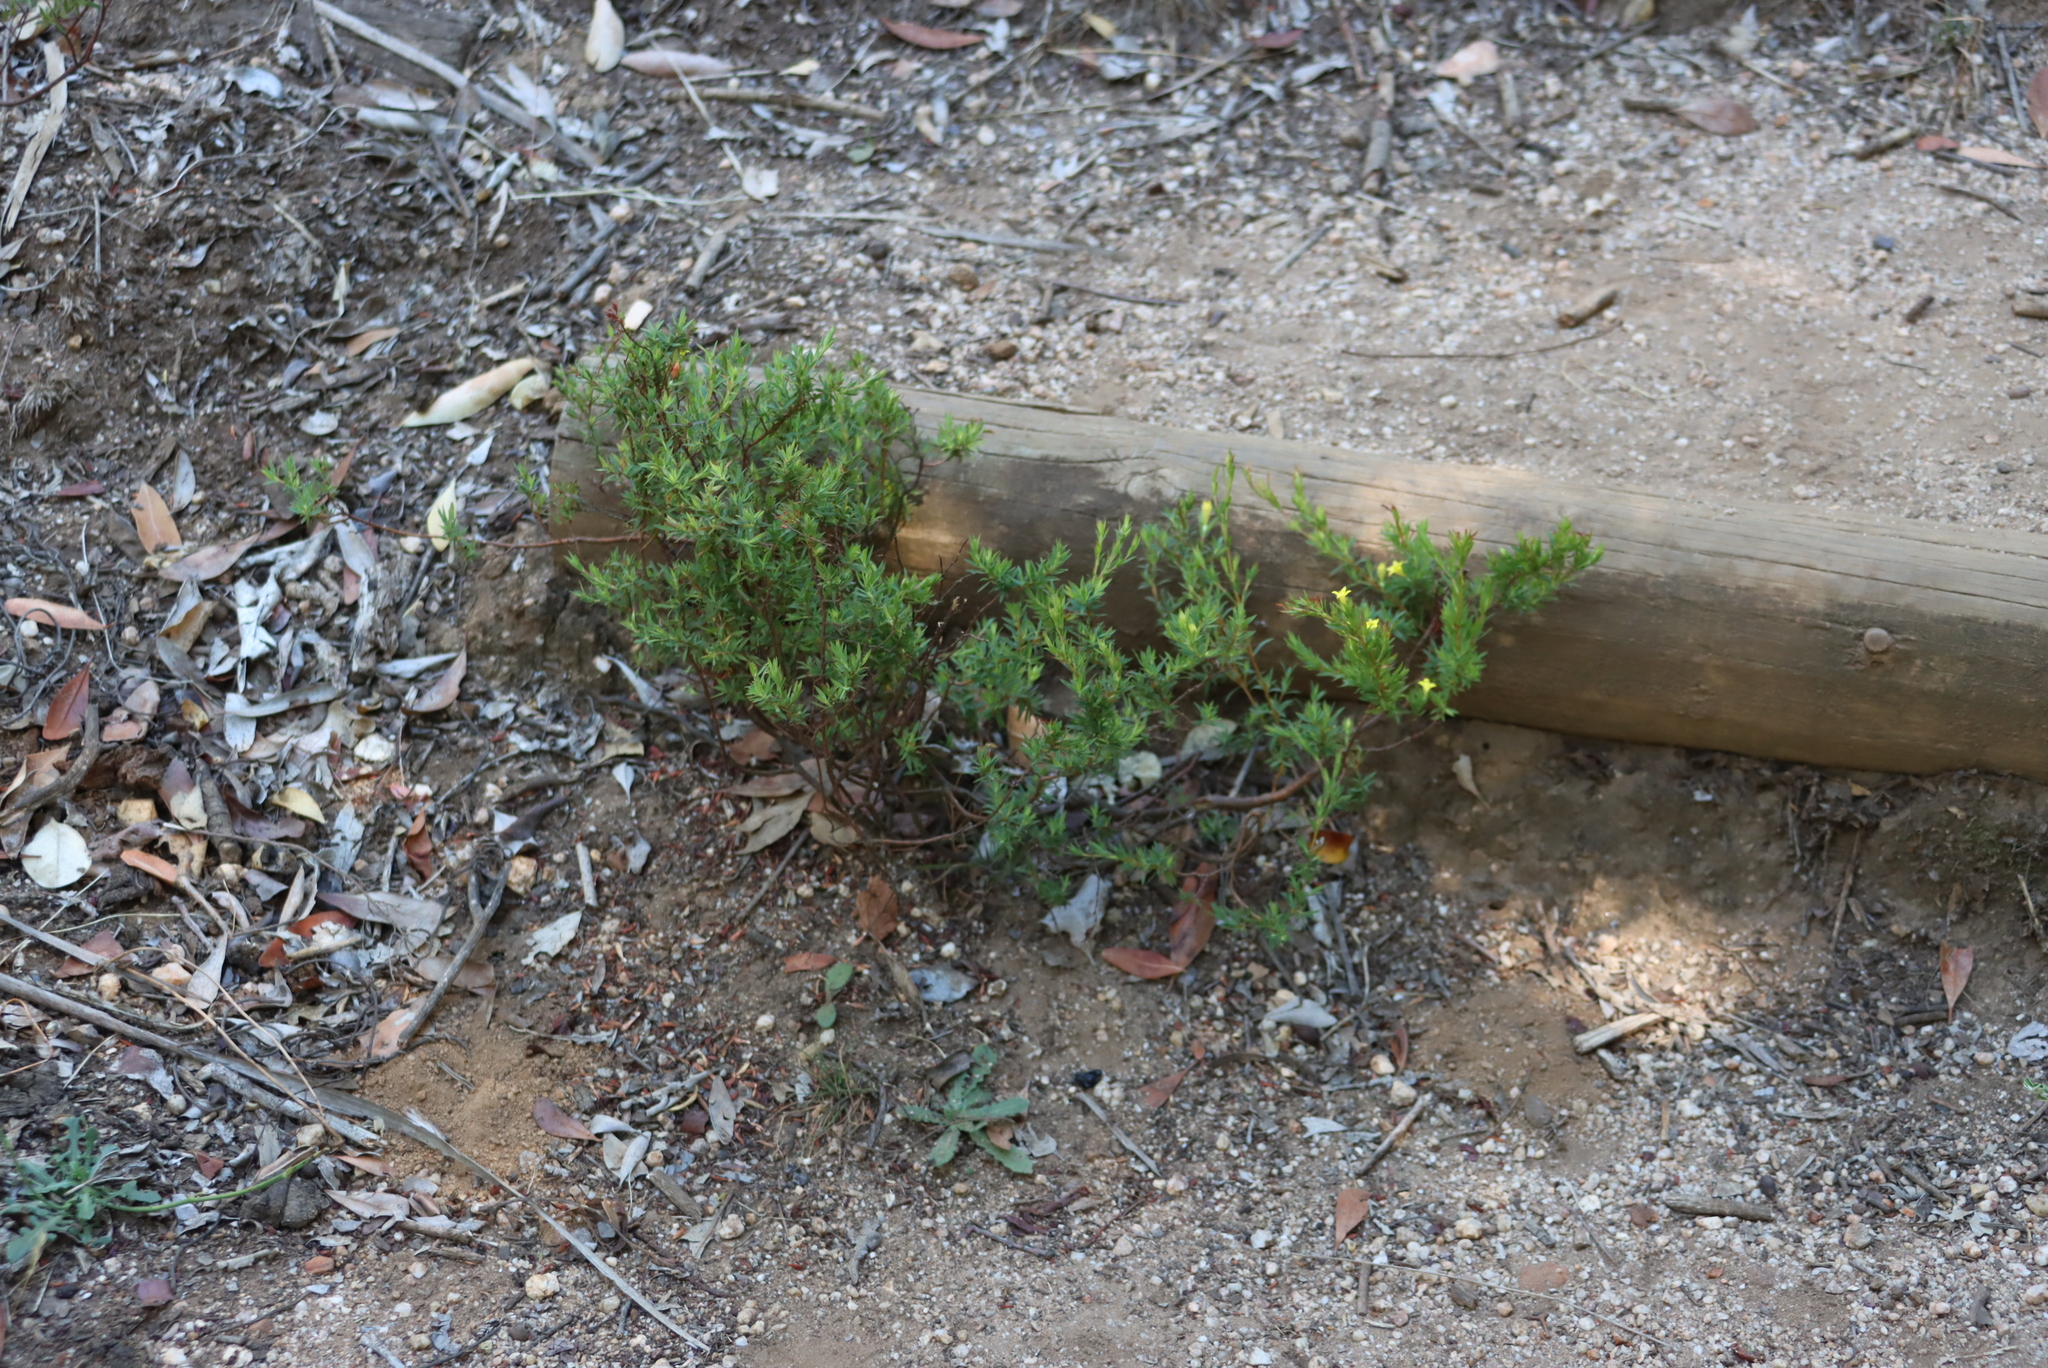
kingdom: Plantae
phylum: Tracheophyta
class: Magnoliopsida
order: Malvales
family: Thymelaeaceae
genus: Gnidia
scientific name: Gnidia juniperifolia
